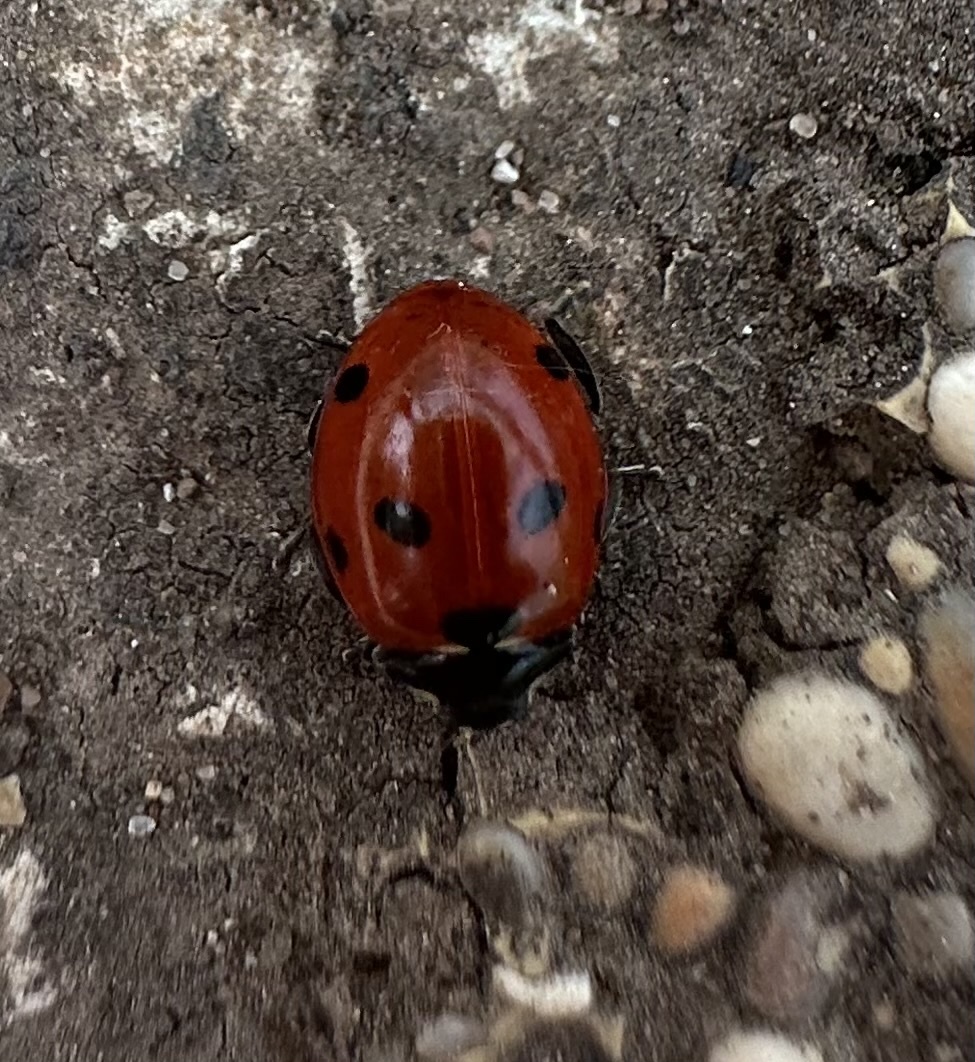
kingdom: Animalia
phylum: Arthropoda
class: Insecta
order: Coleoptera
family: Coccinellidae
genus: Coccinella
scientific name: Coccinella septempunctata
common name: Sevenspotted lady beetle
